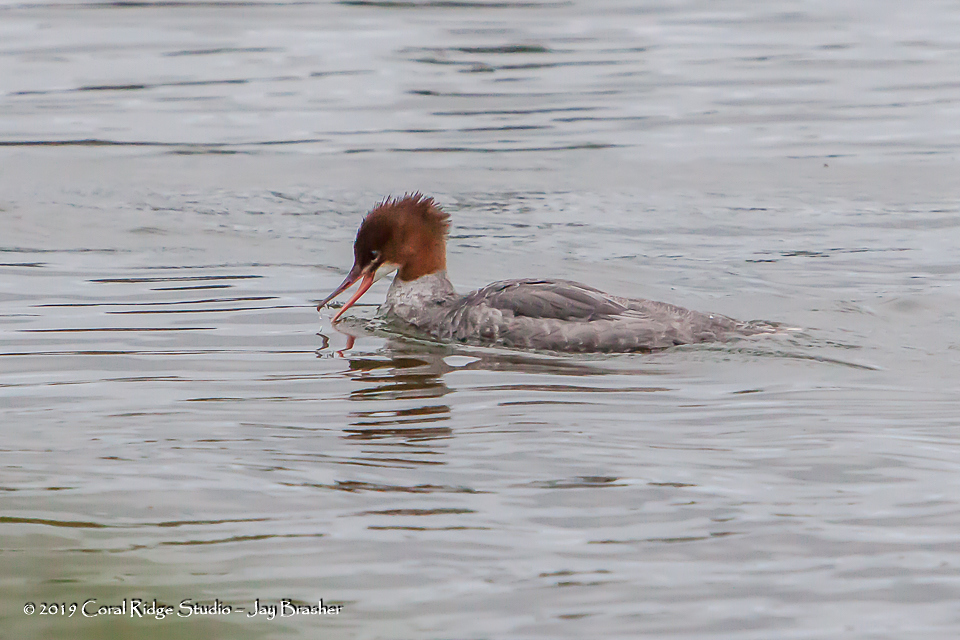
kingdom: Animalia
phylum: Chordata
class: Aves
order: Anseriformes
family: Anatidae
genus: Mergus
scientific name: Mergus merganser
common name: Common merganser
